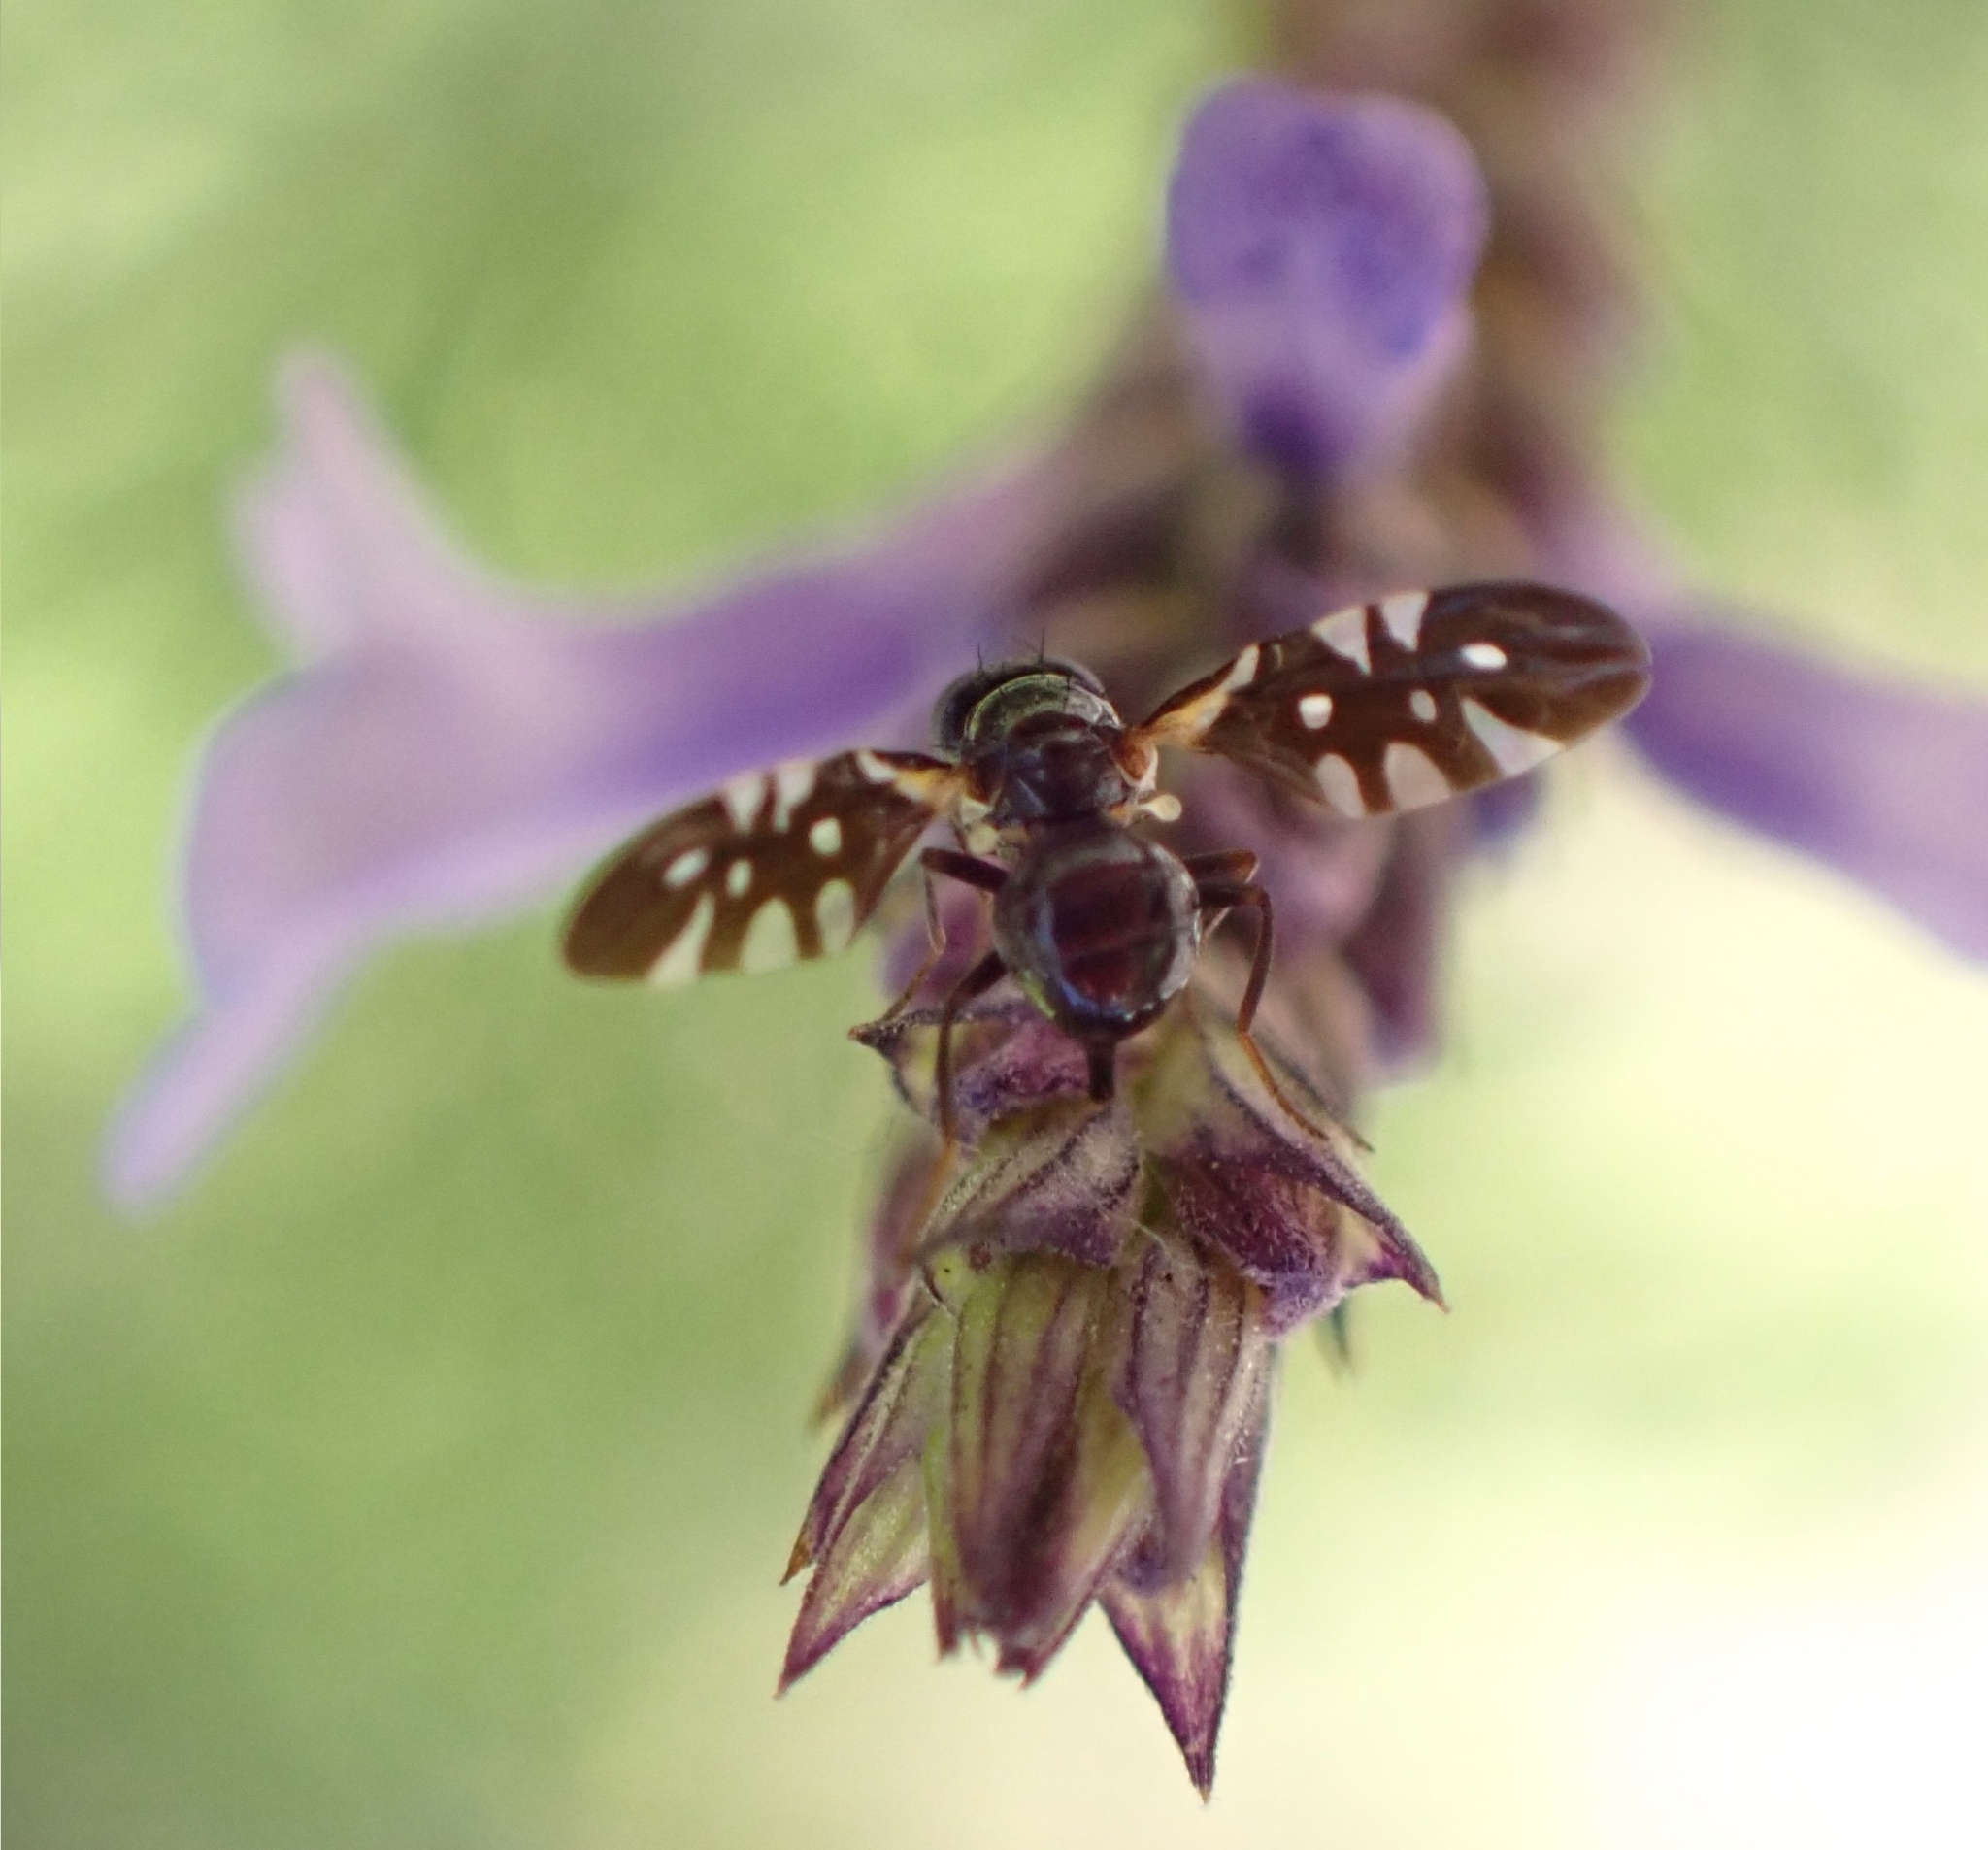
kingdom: Animalia
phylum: Arthropoda
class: Insecta
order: Diptera
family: Tephritidae
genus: Oxyaciura
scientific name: Oxyaciura tibialis
